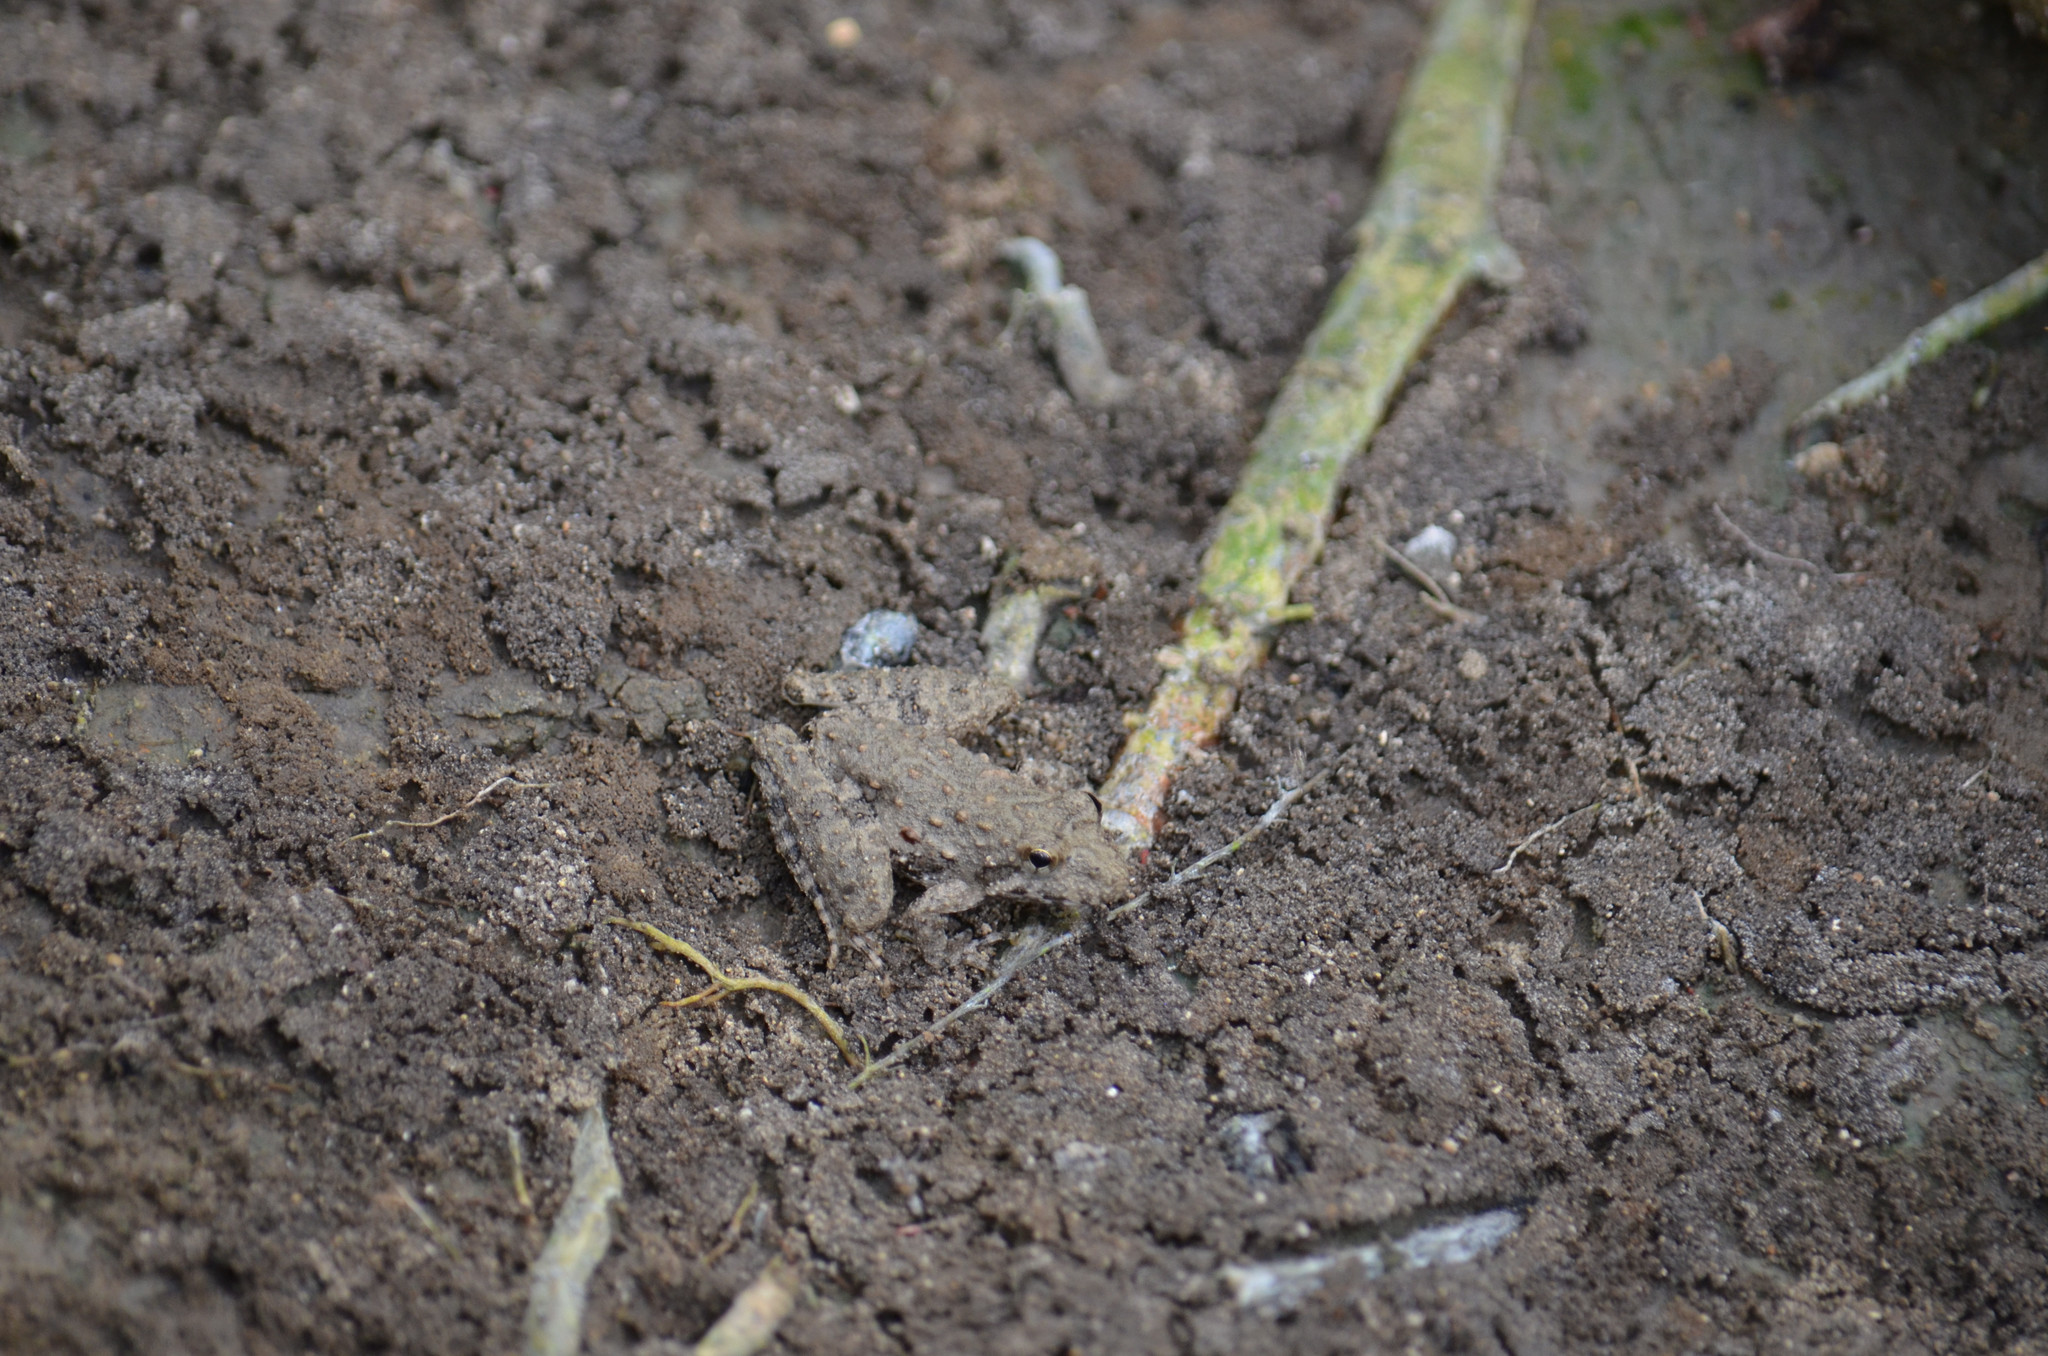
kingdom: Animalia
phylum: Chordata
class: Amphibia
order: Anura
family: Hylidae
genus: Acris
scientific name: Acris blanchardi
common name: Blanchard's cricket frog
